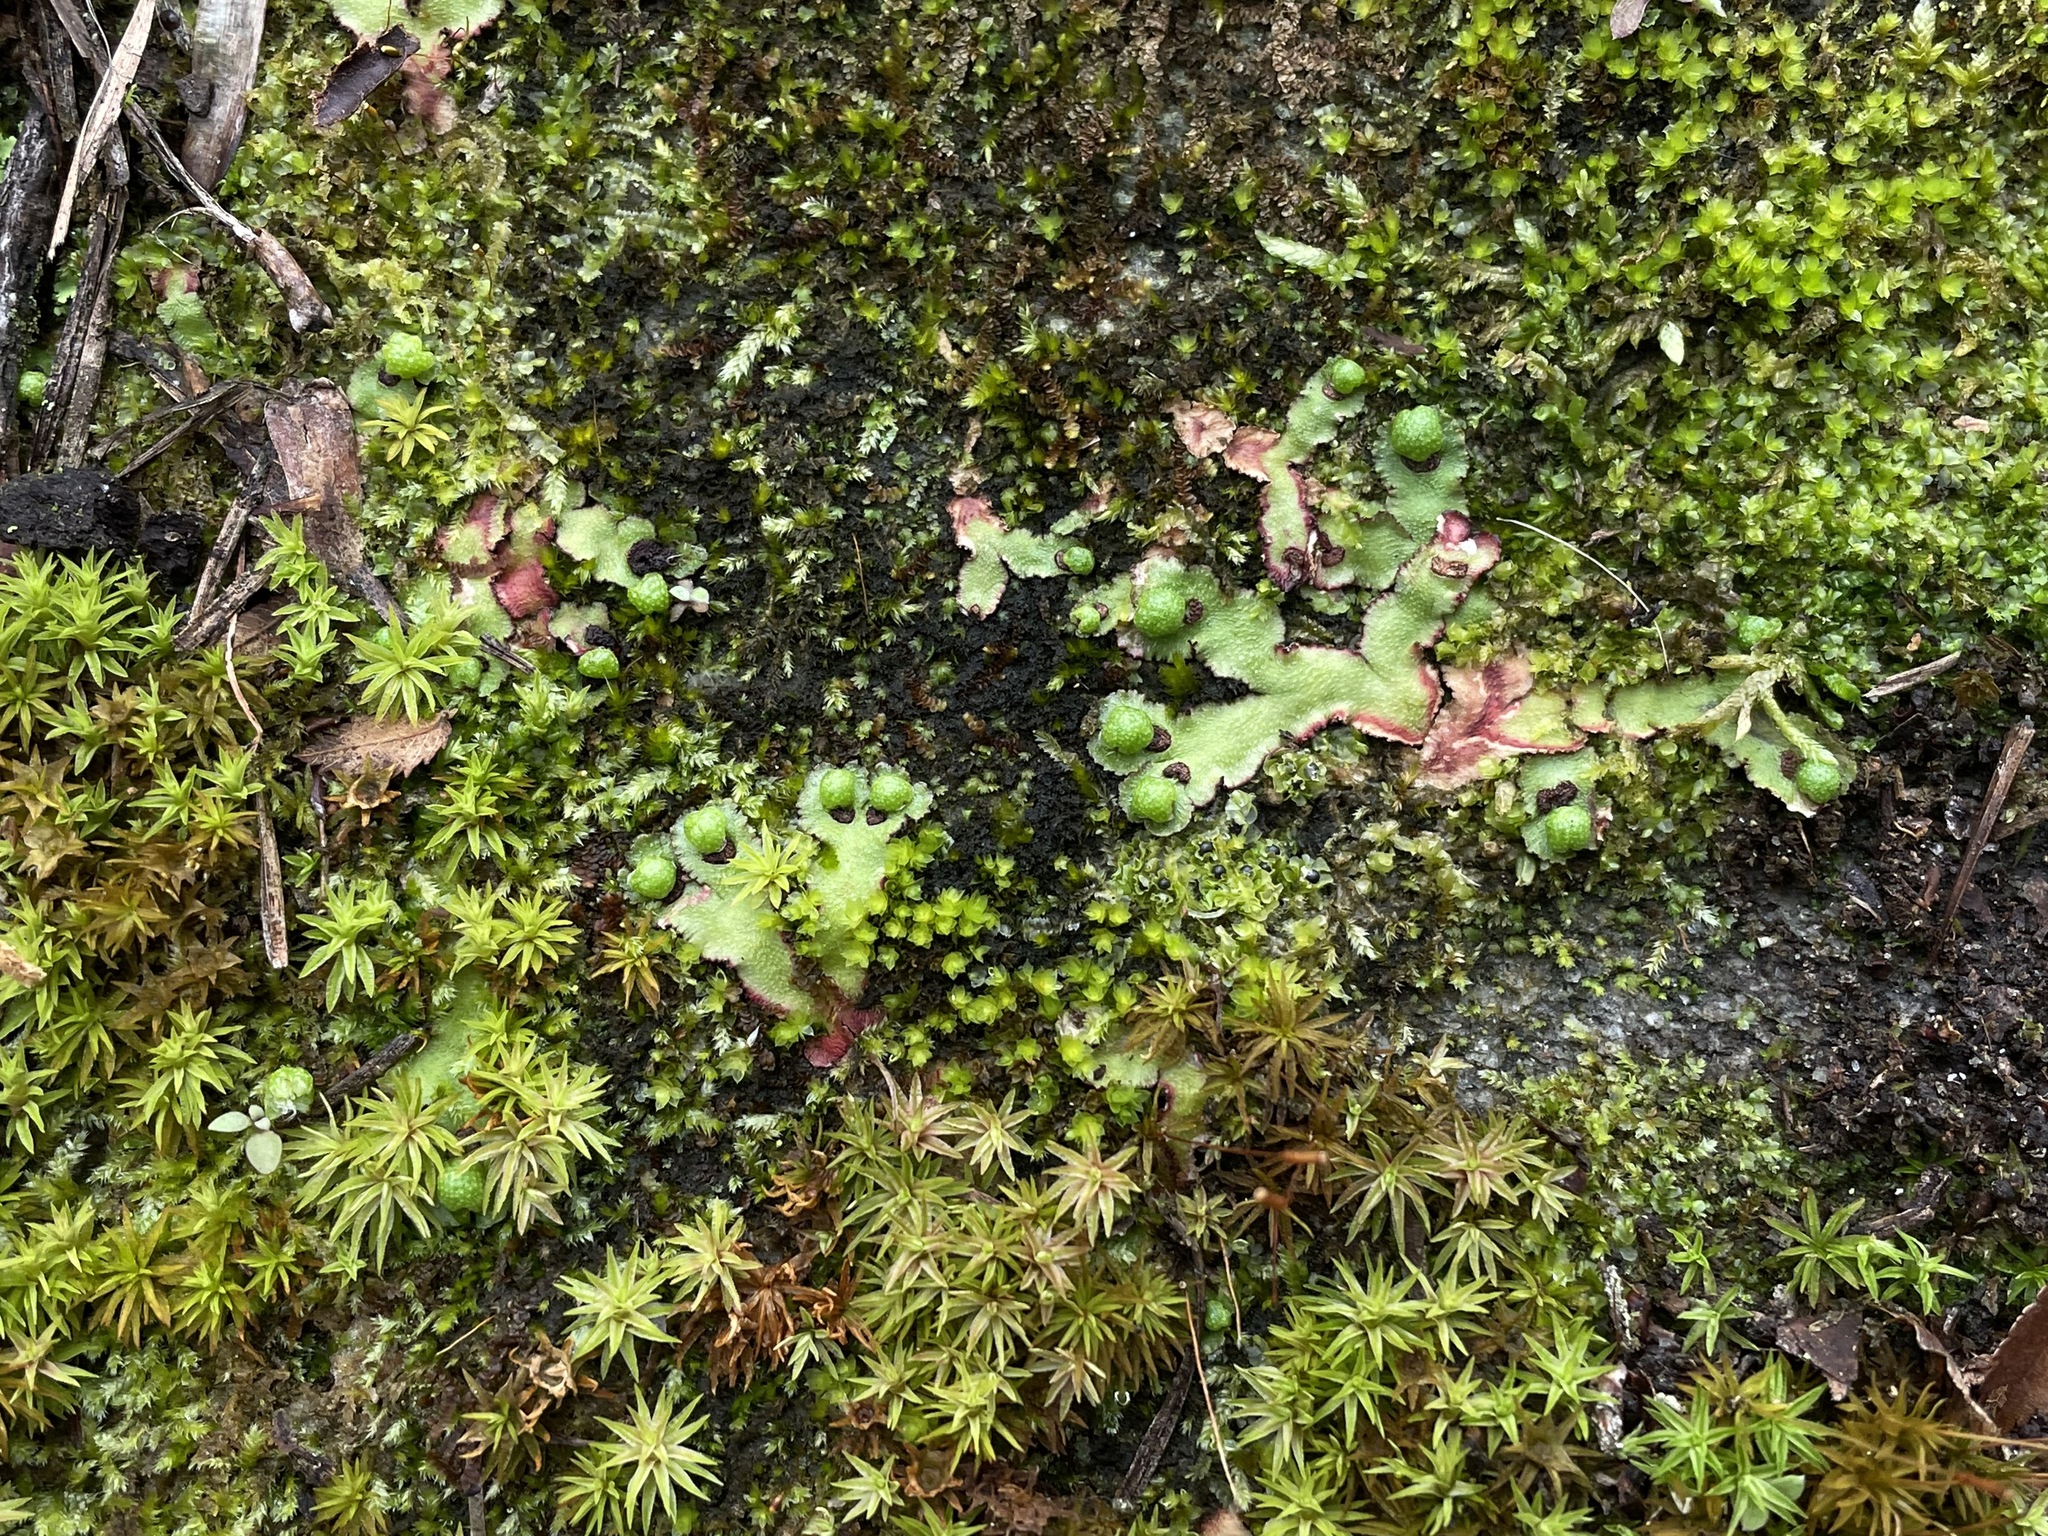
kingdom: Plantae
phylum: Marchantiophyta
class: Marchantiopsida
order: Marchantiales
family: Aytoniaceae
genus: Reboulia
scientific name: Reboulia hemisphaerica
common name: Purple-margined liverwort
